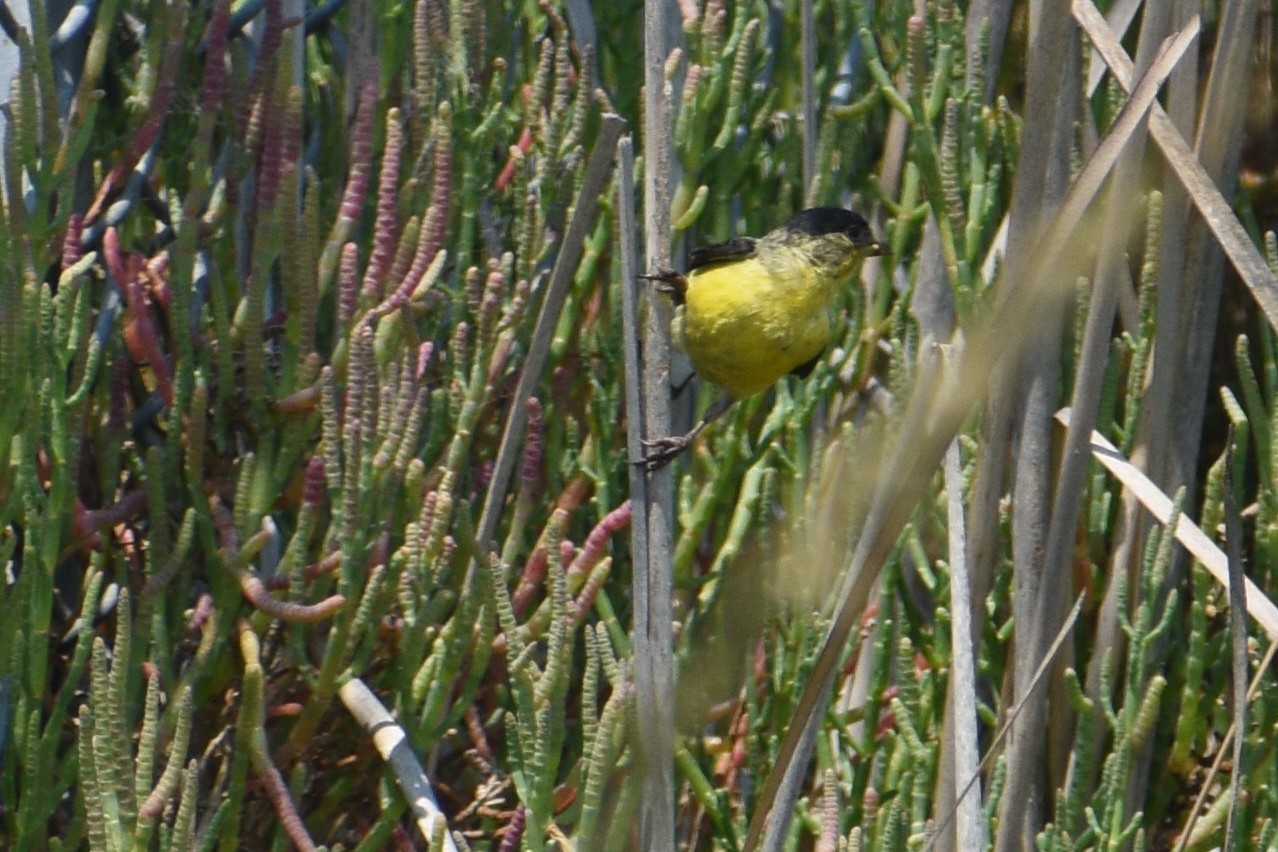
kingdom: Animalia
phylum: Chordata
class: Aves
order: Passeriformes
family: Fringillidae
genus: Spinus
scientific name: Spinus psaltria
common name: Lesser goldfinch
